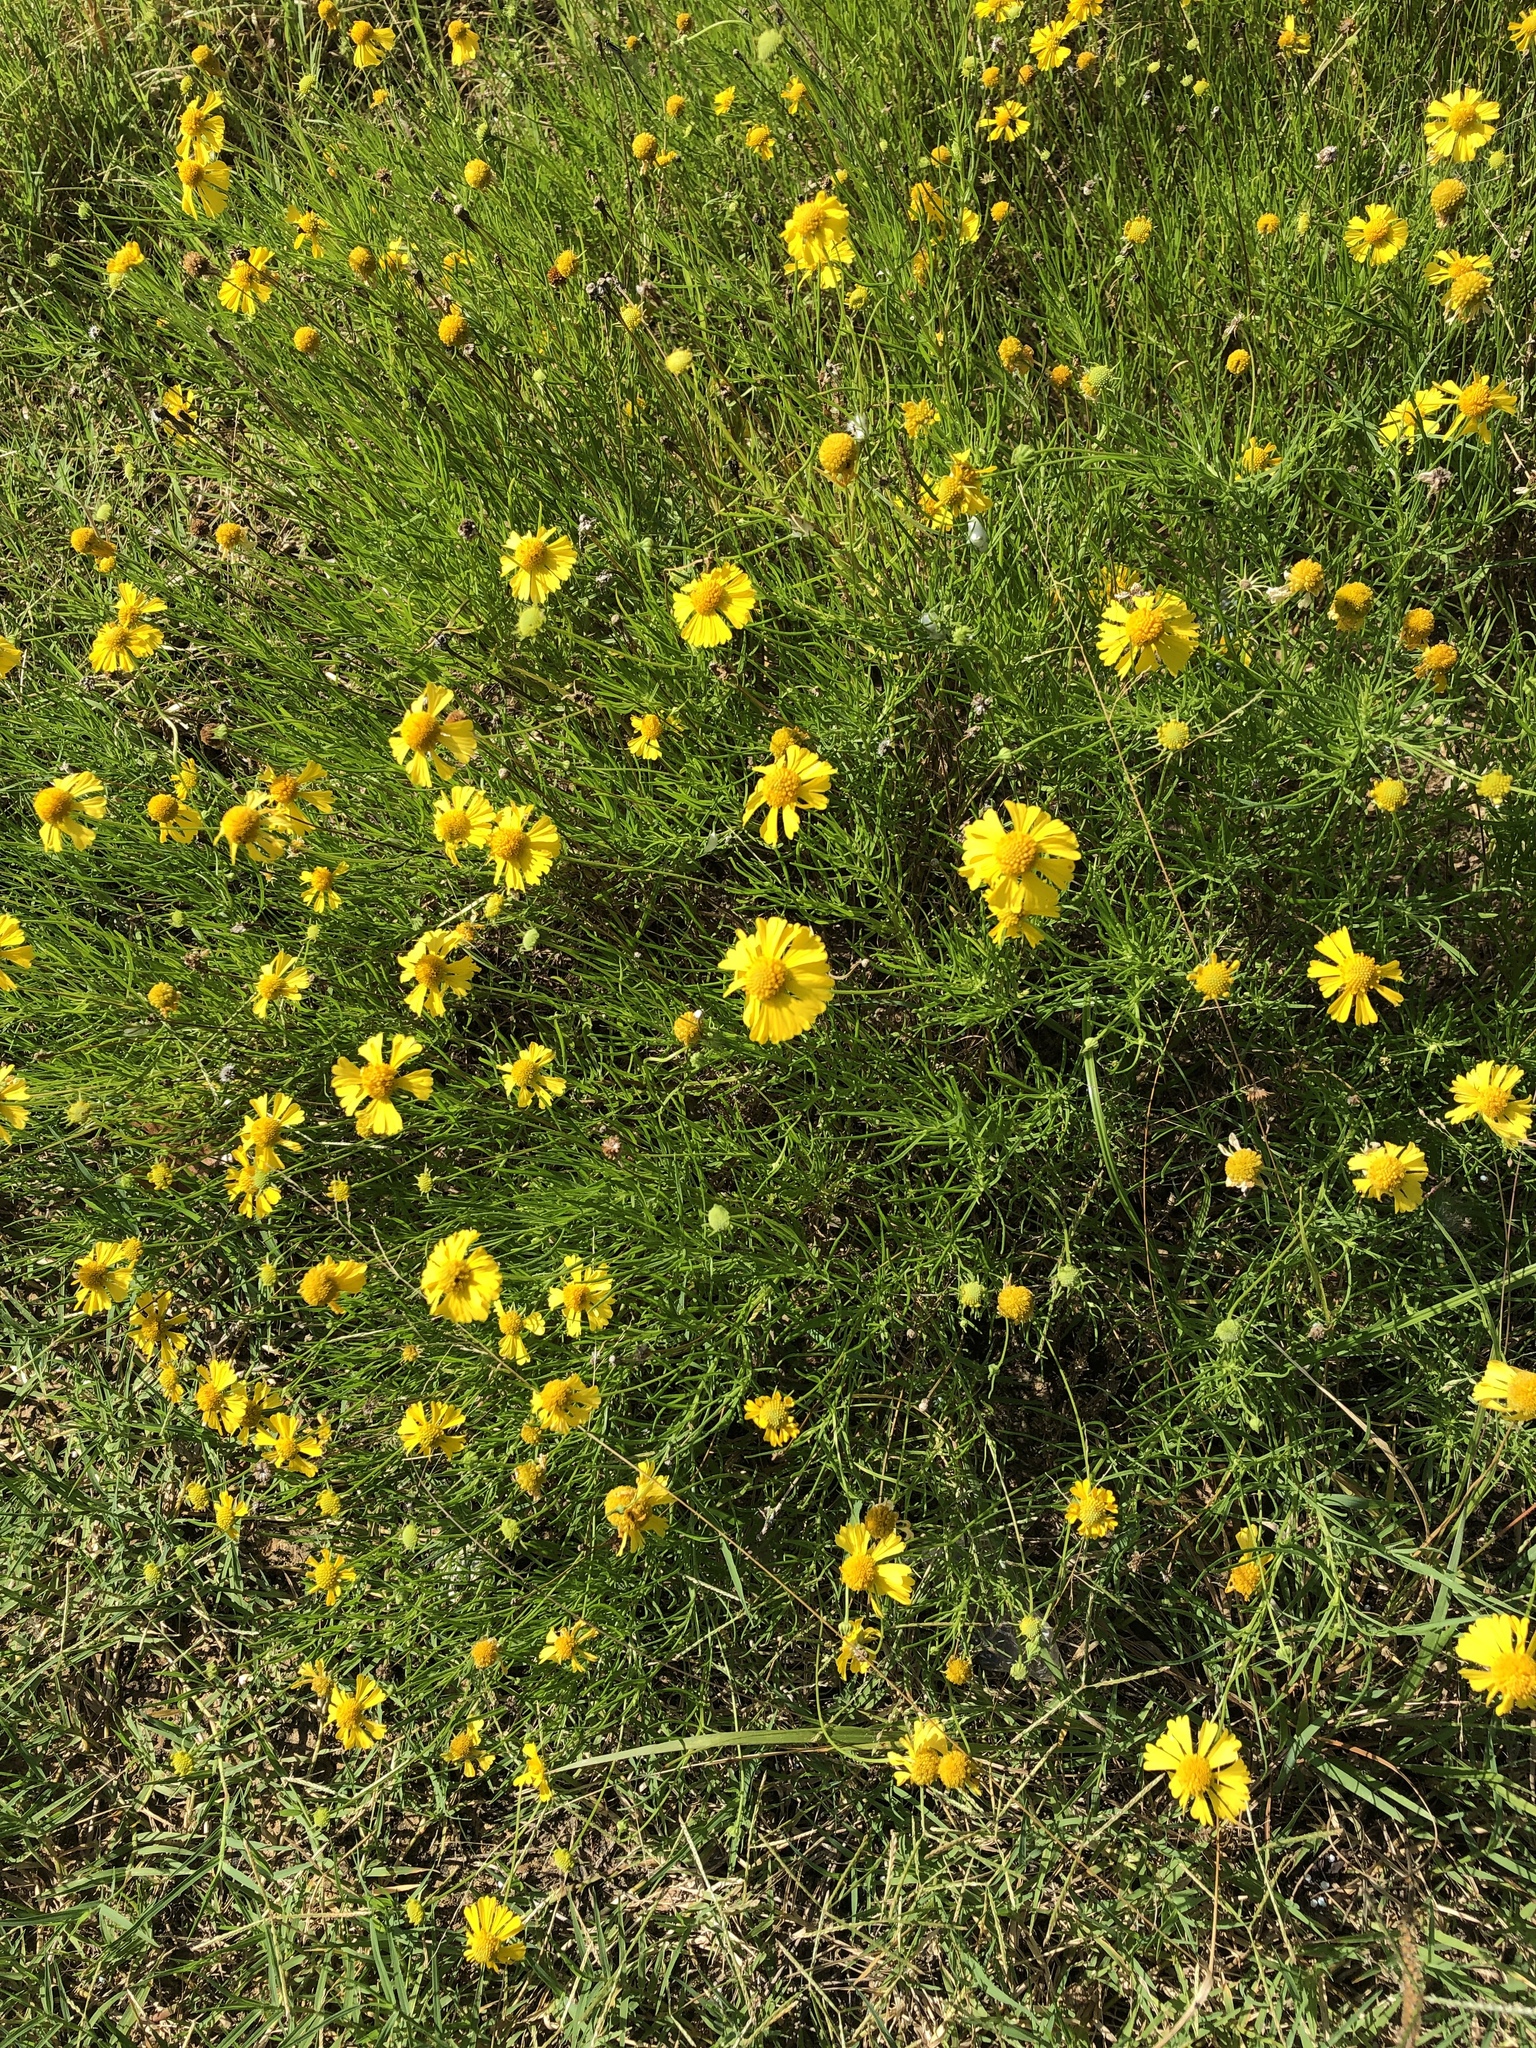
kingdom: Plantae
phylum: Tracheophyta
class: Magnoliopsida
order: Asterales
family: Asteraceae
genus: Helenium
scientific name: Helenium amarum
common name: Bitter sneezeweed
